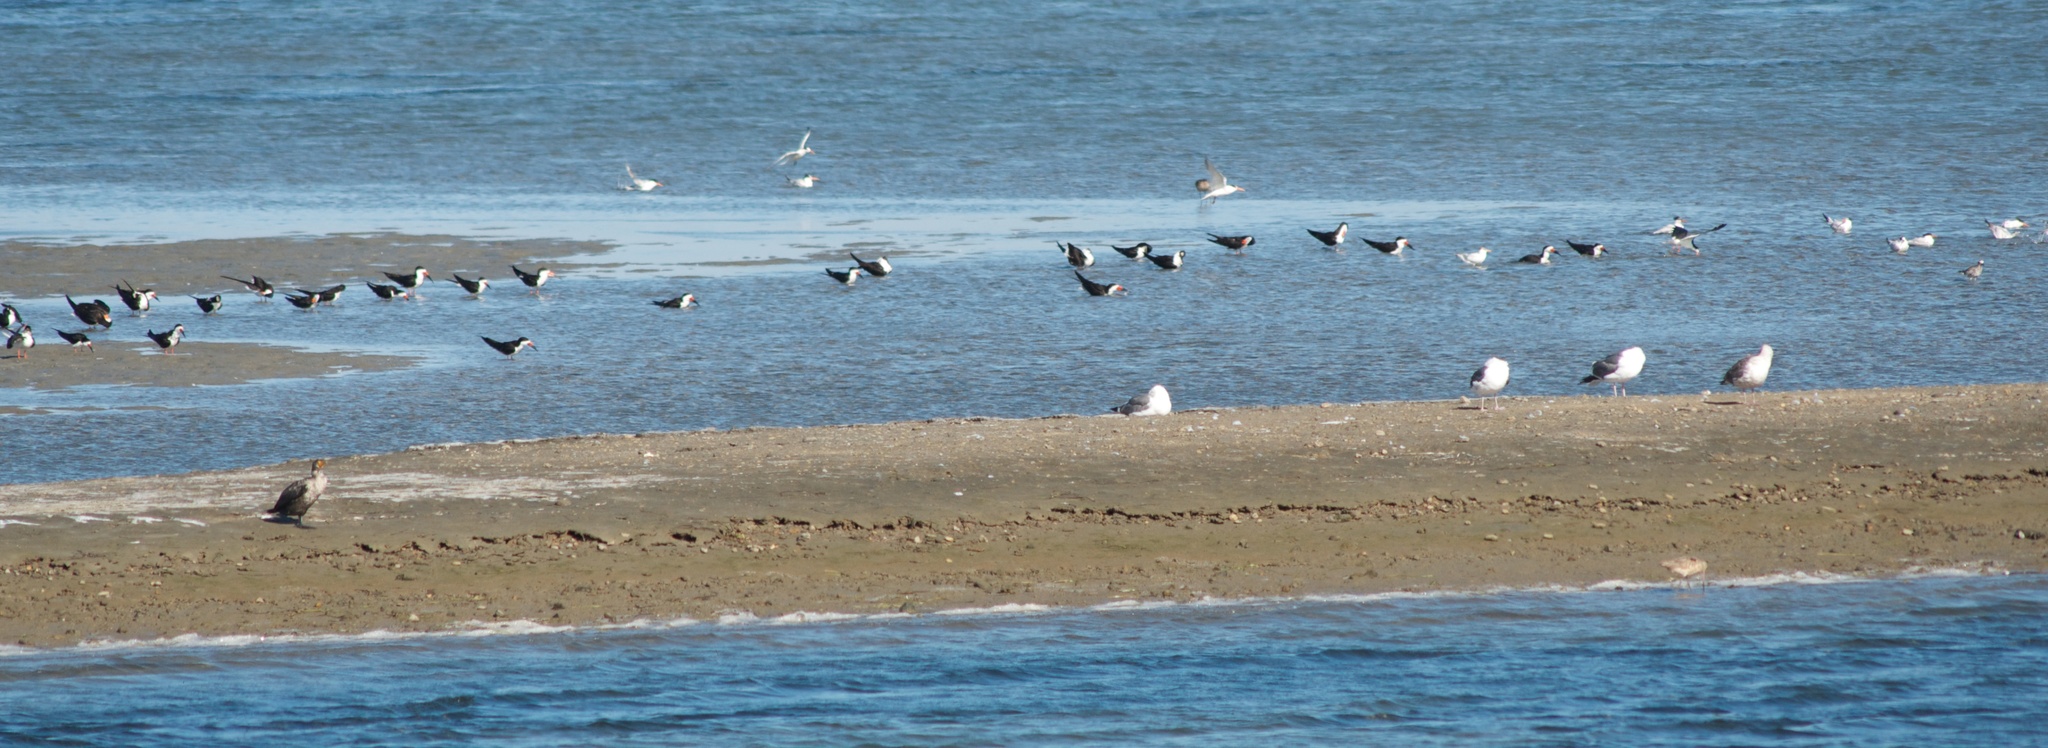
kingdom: Animalia
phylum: Chordata
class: Aves
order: Charadriiformes
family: Laridae
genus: Rynchops
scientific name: Rynchops niger
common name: Black skimmer
